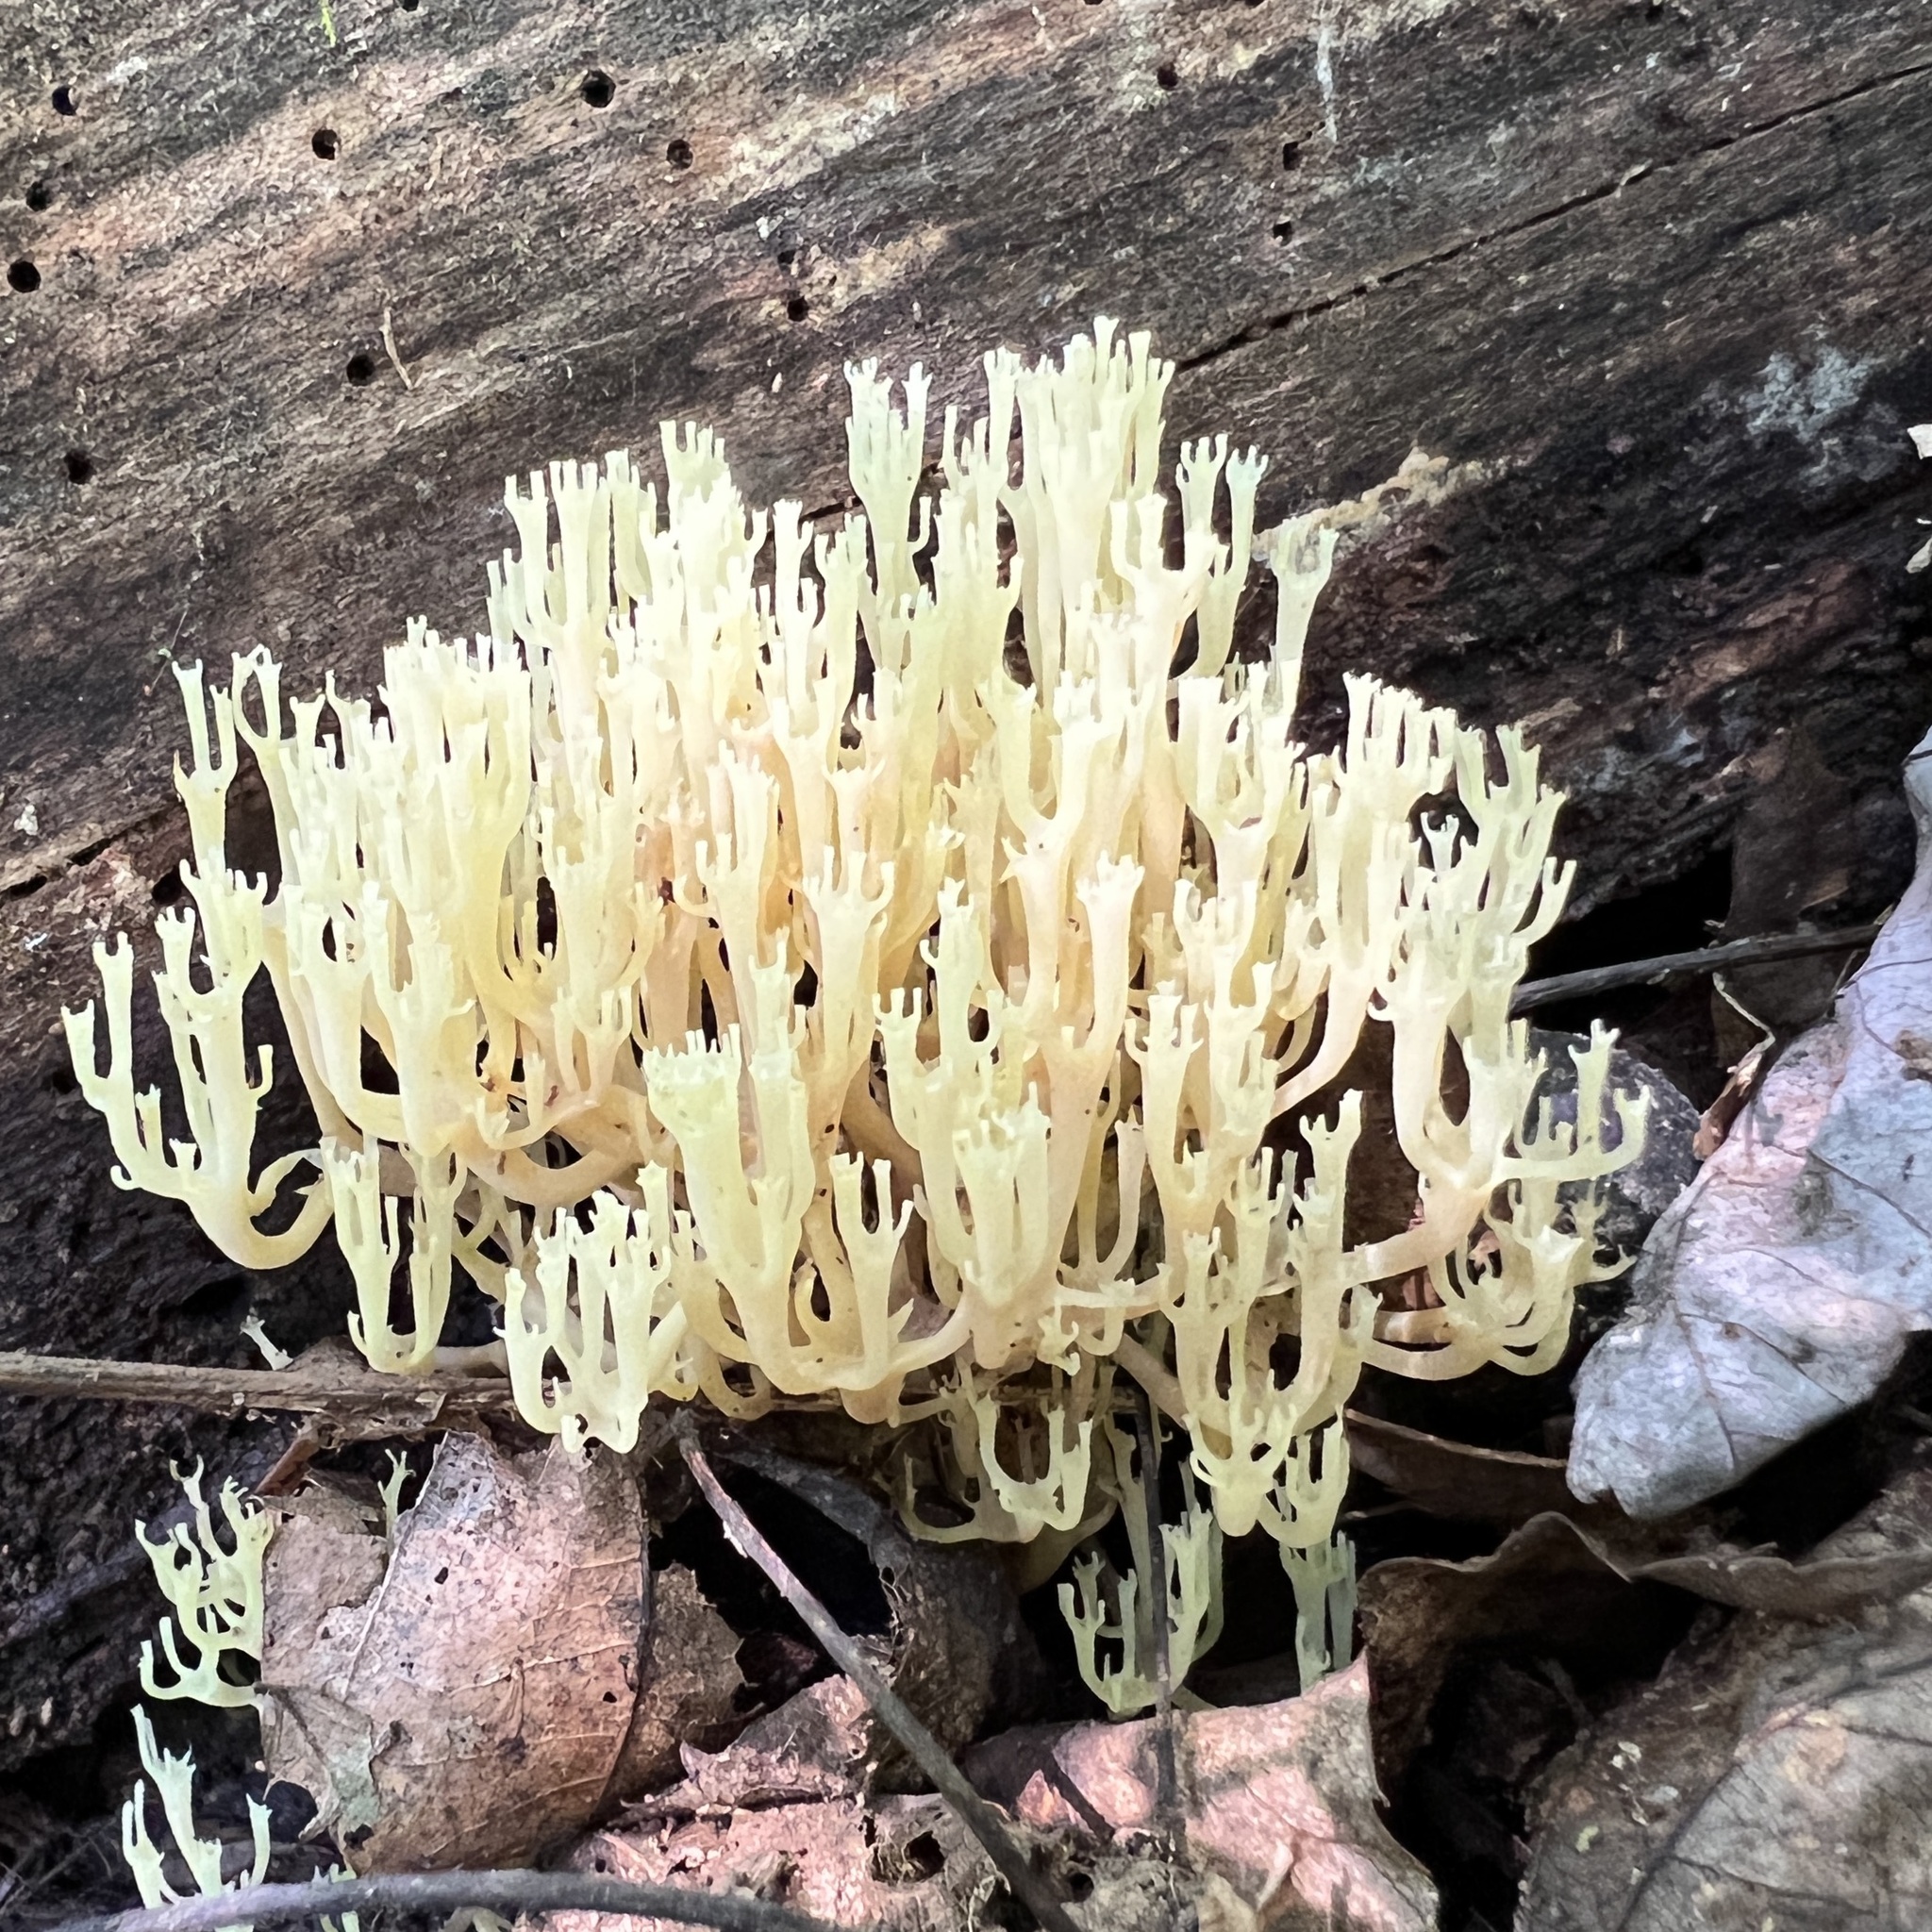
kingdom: Fungi
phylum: Basidiomycota
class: Agaricomycetes
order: Russulales
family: Auriscalpiaceae
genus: Artomyces
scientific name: Artomyces pyxidatus
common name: Crown-tipped coral fungus
